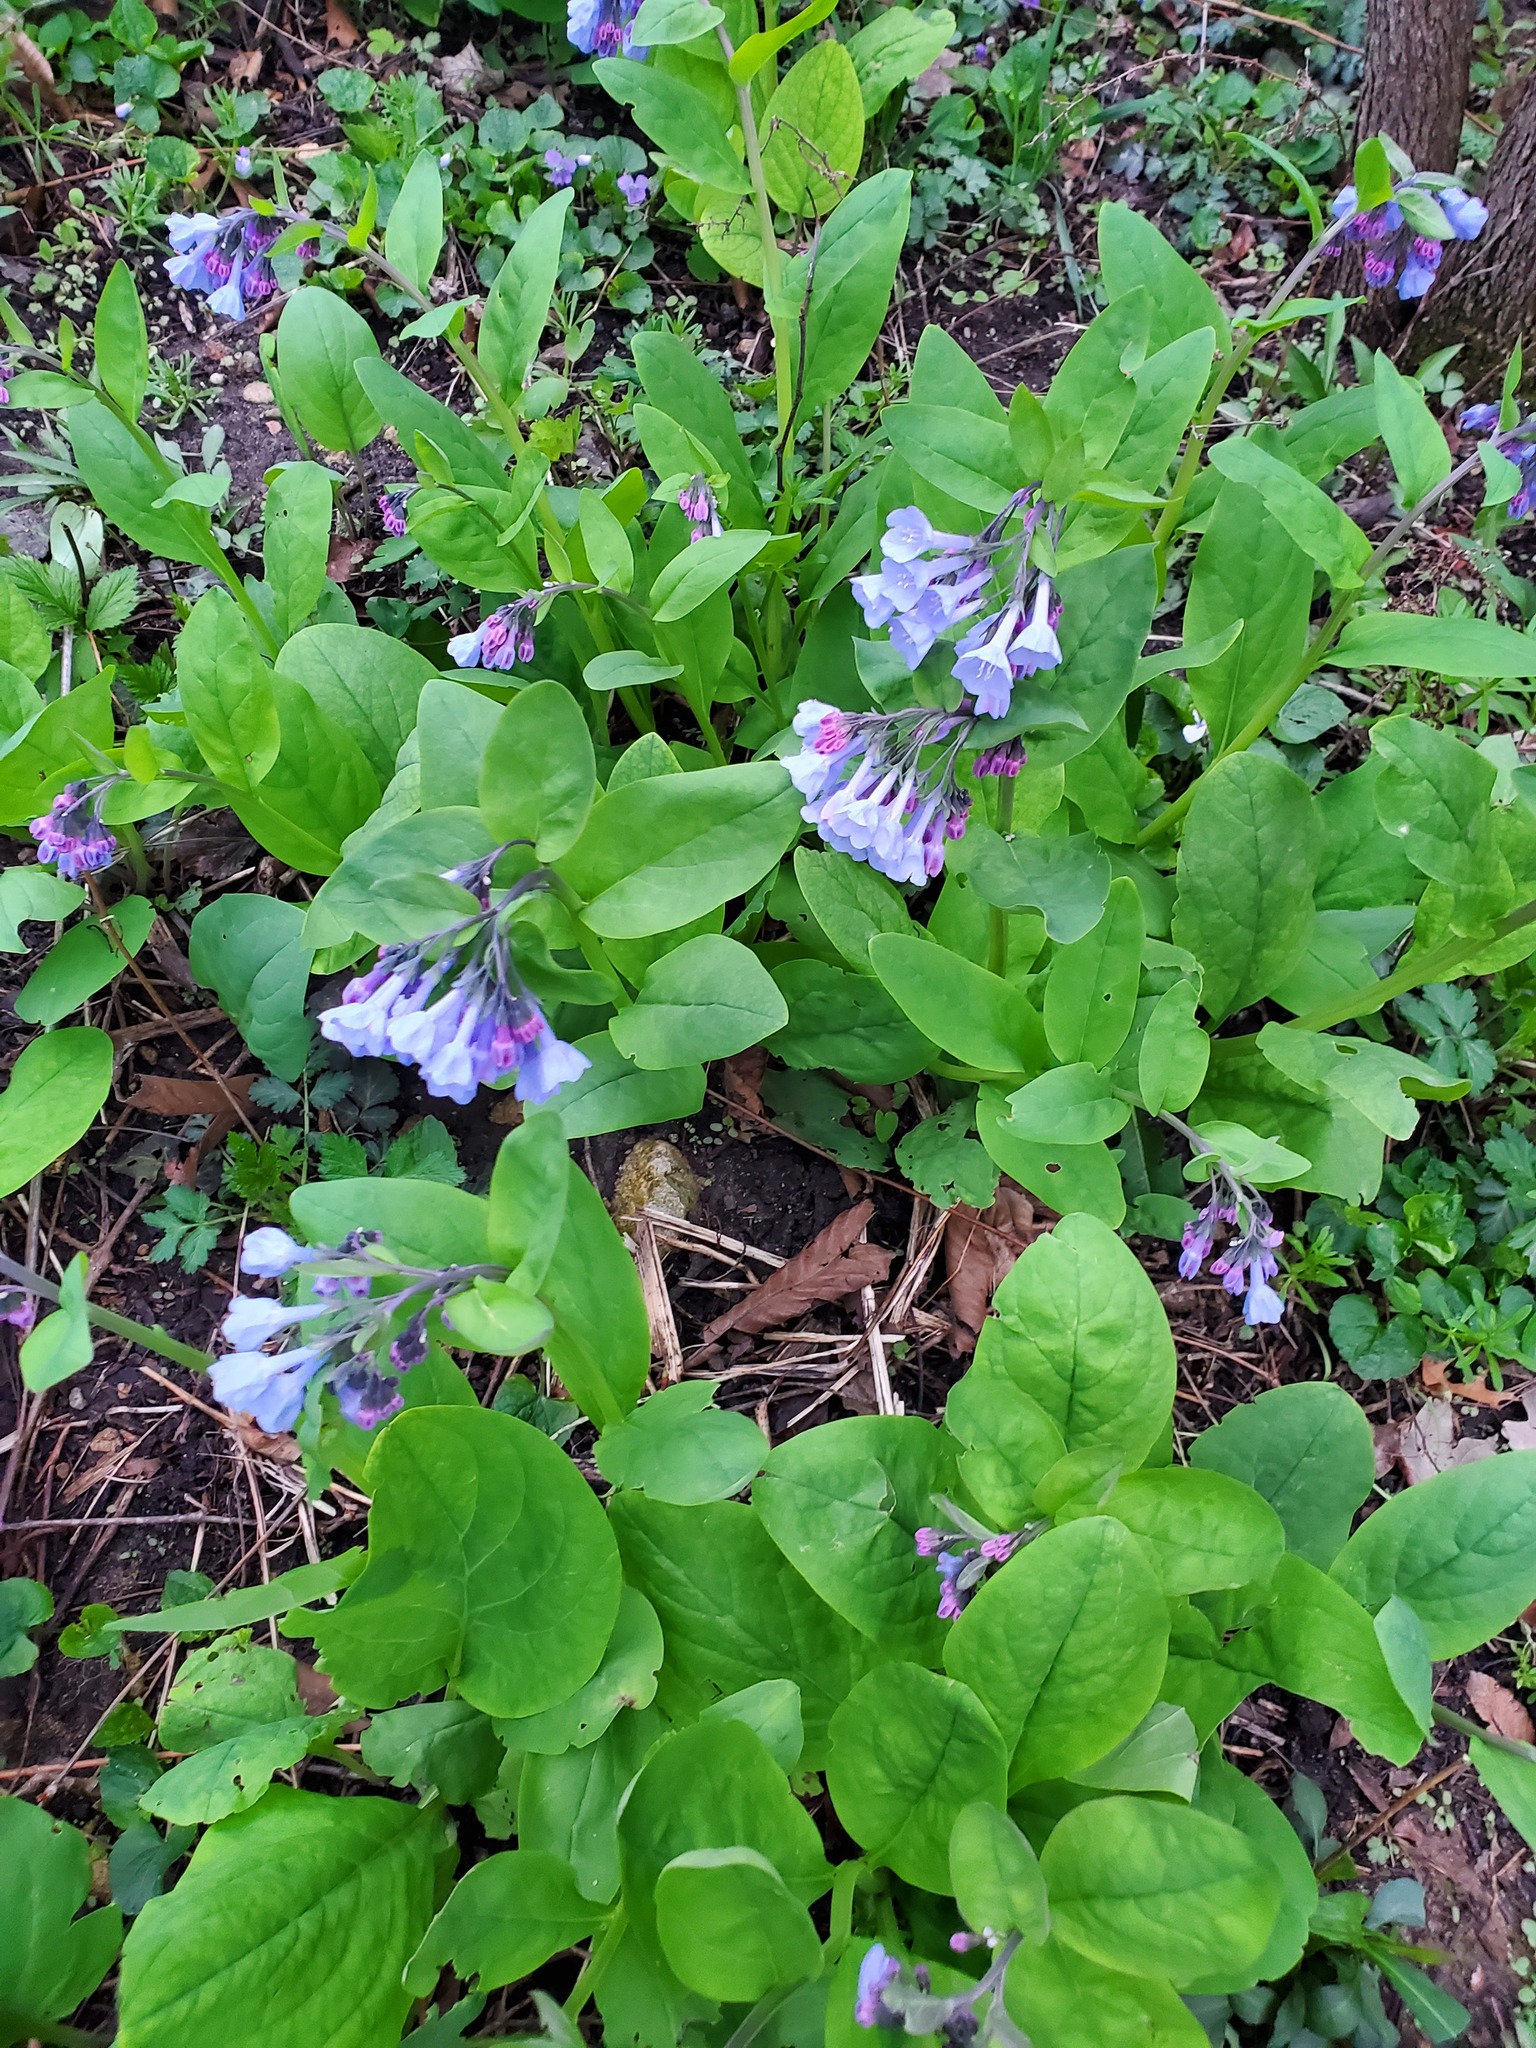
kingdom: Plantae
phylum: Tracheophyta
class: Magnoliopsida
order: Boraginales
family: Boraginaceae
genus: Mertensia
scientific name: Mertensia virginica
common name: Virginia bluebells
